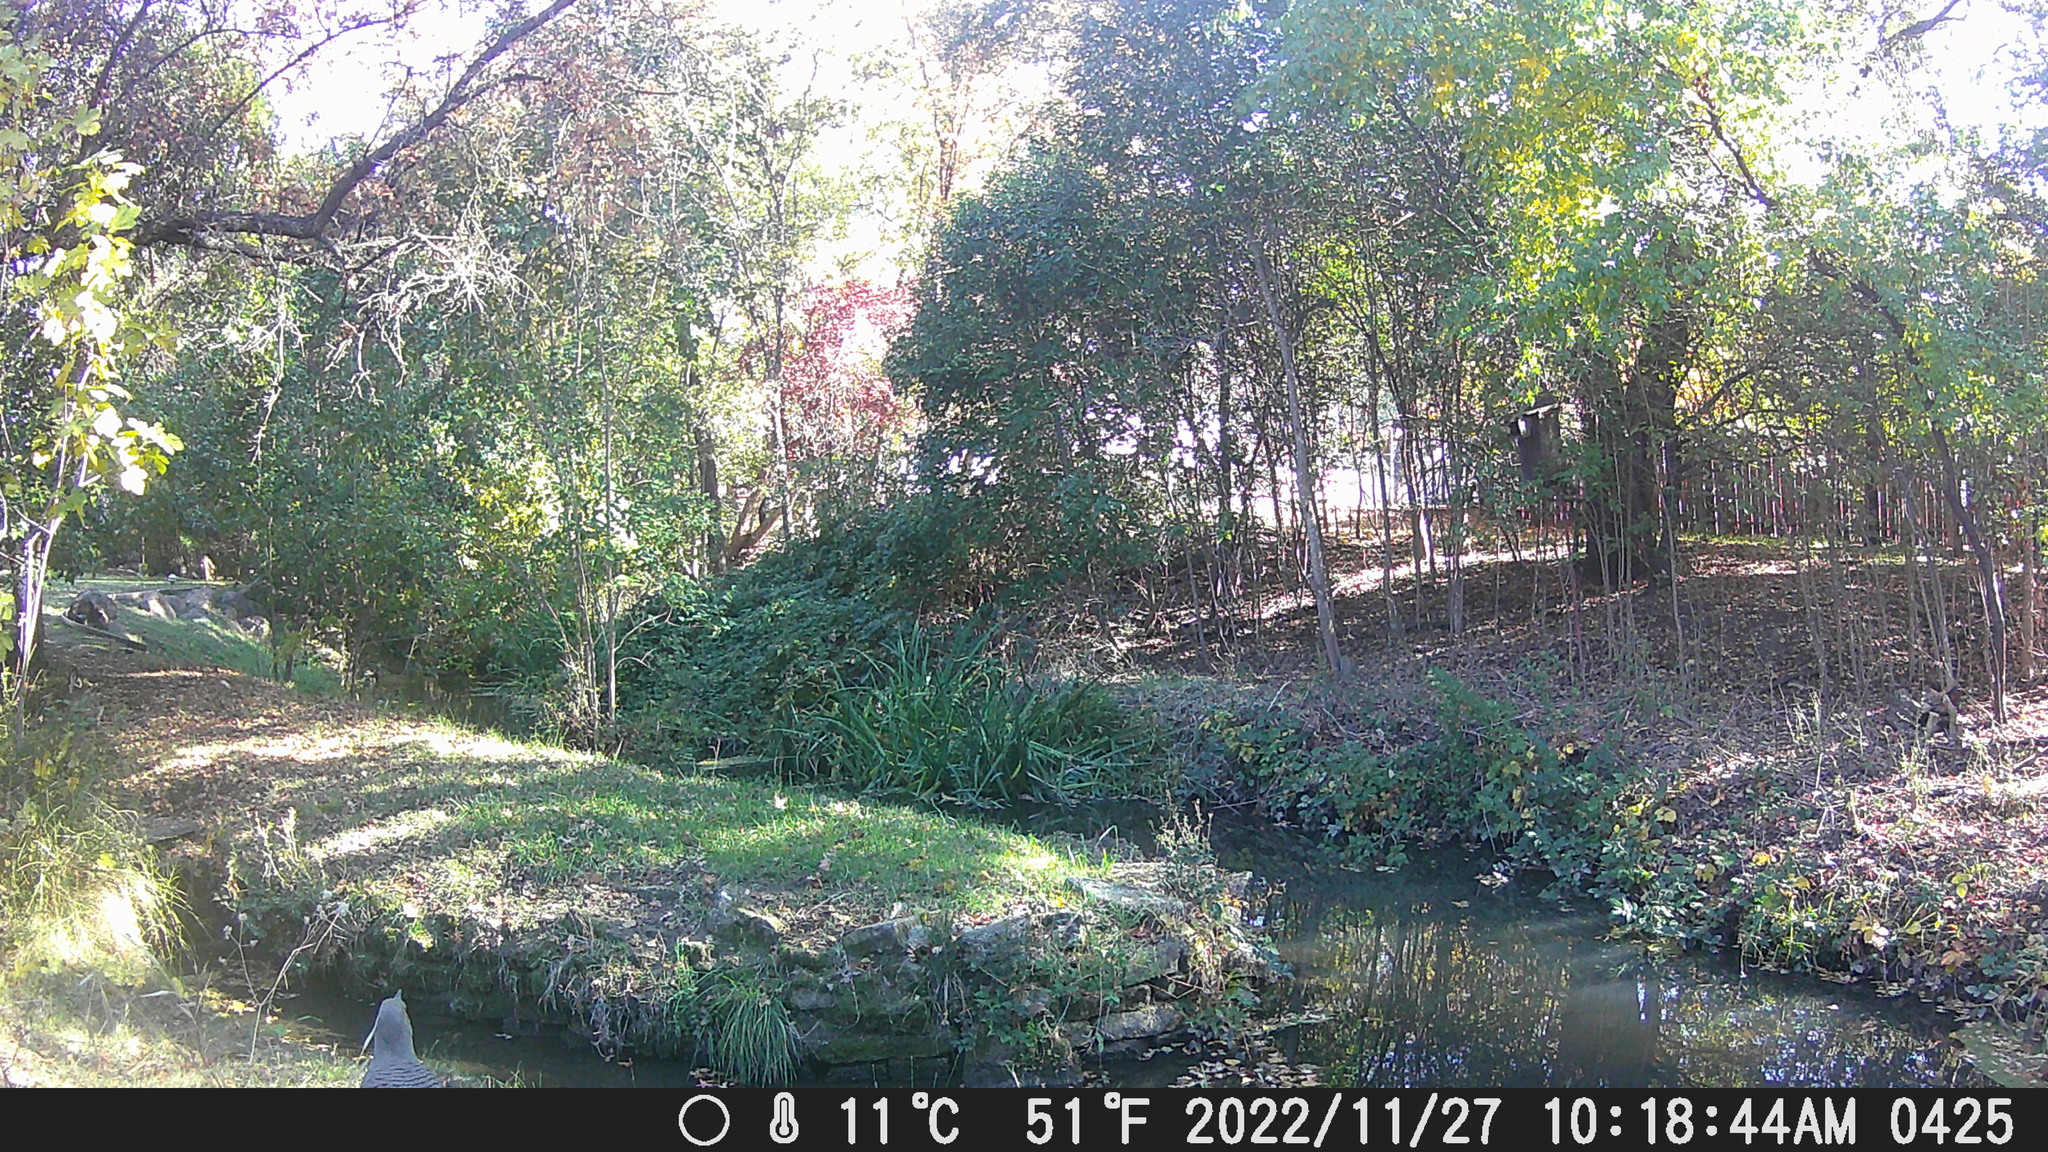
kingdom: Animalia
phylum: Chordata
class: Aves
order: Piciformes
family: Picidae
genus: Colaptes
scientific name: Colaptes auratus
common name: Northern flicker
